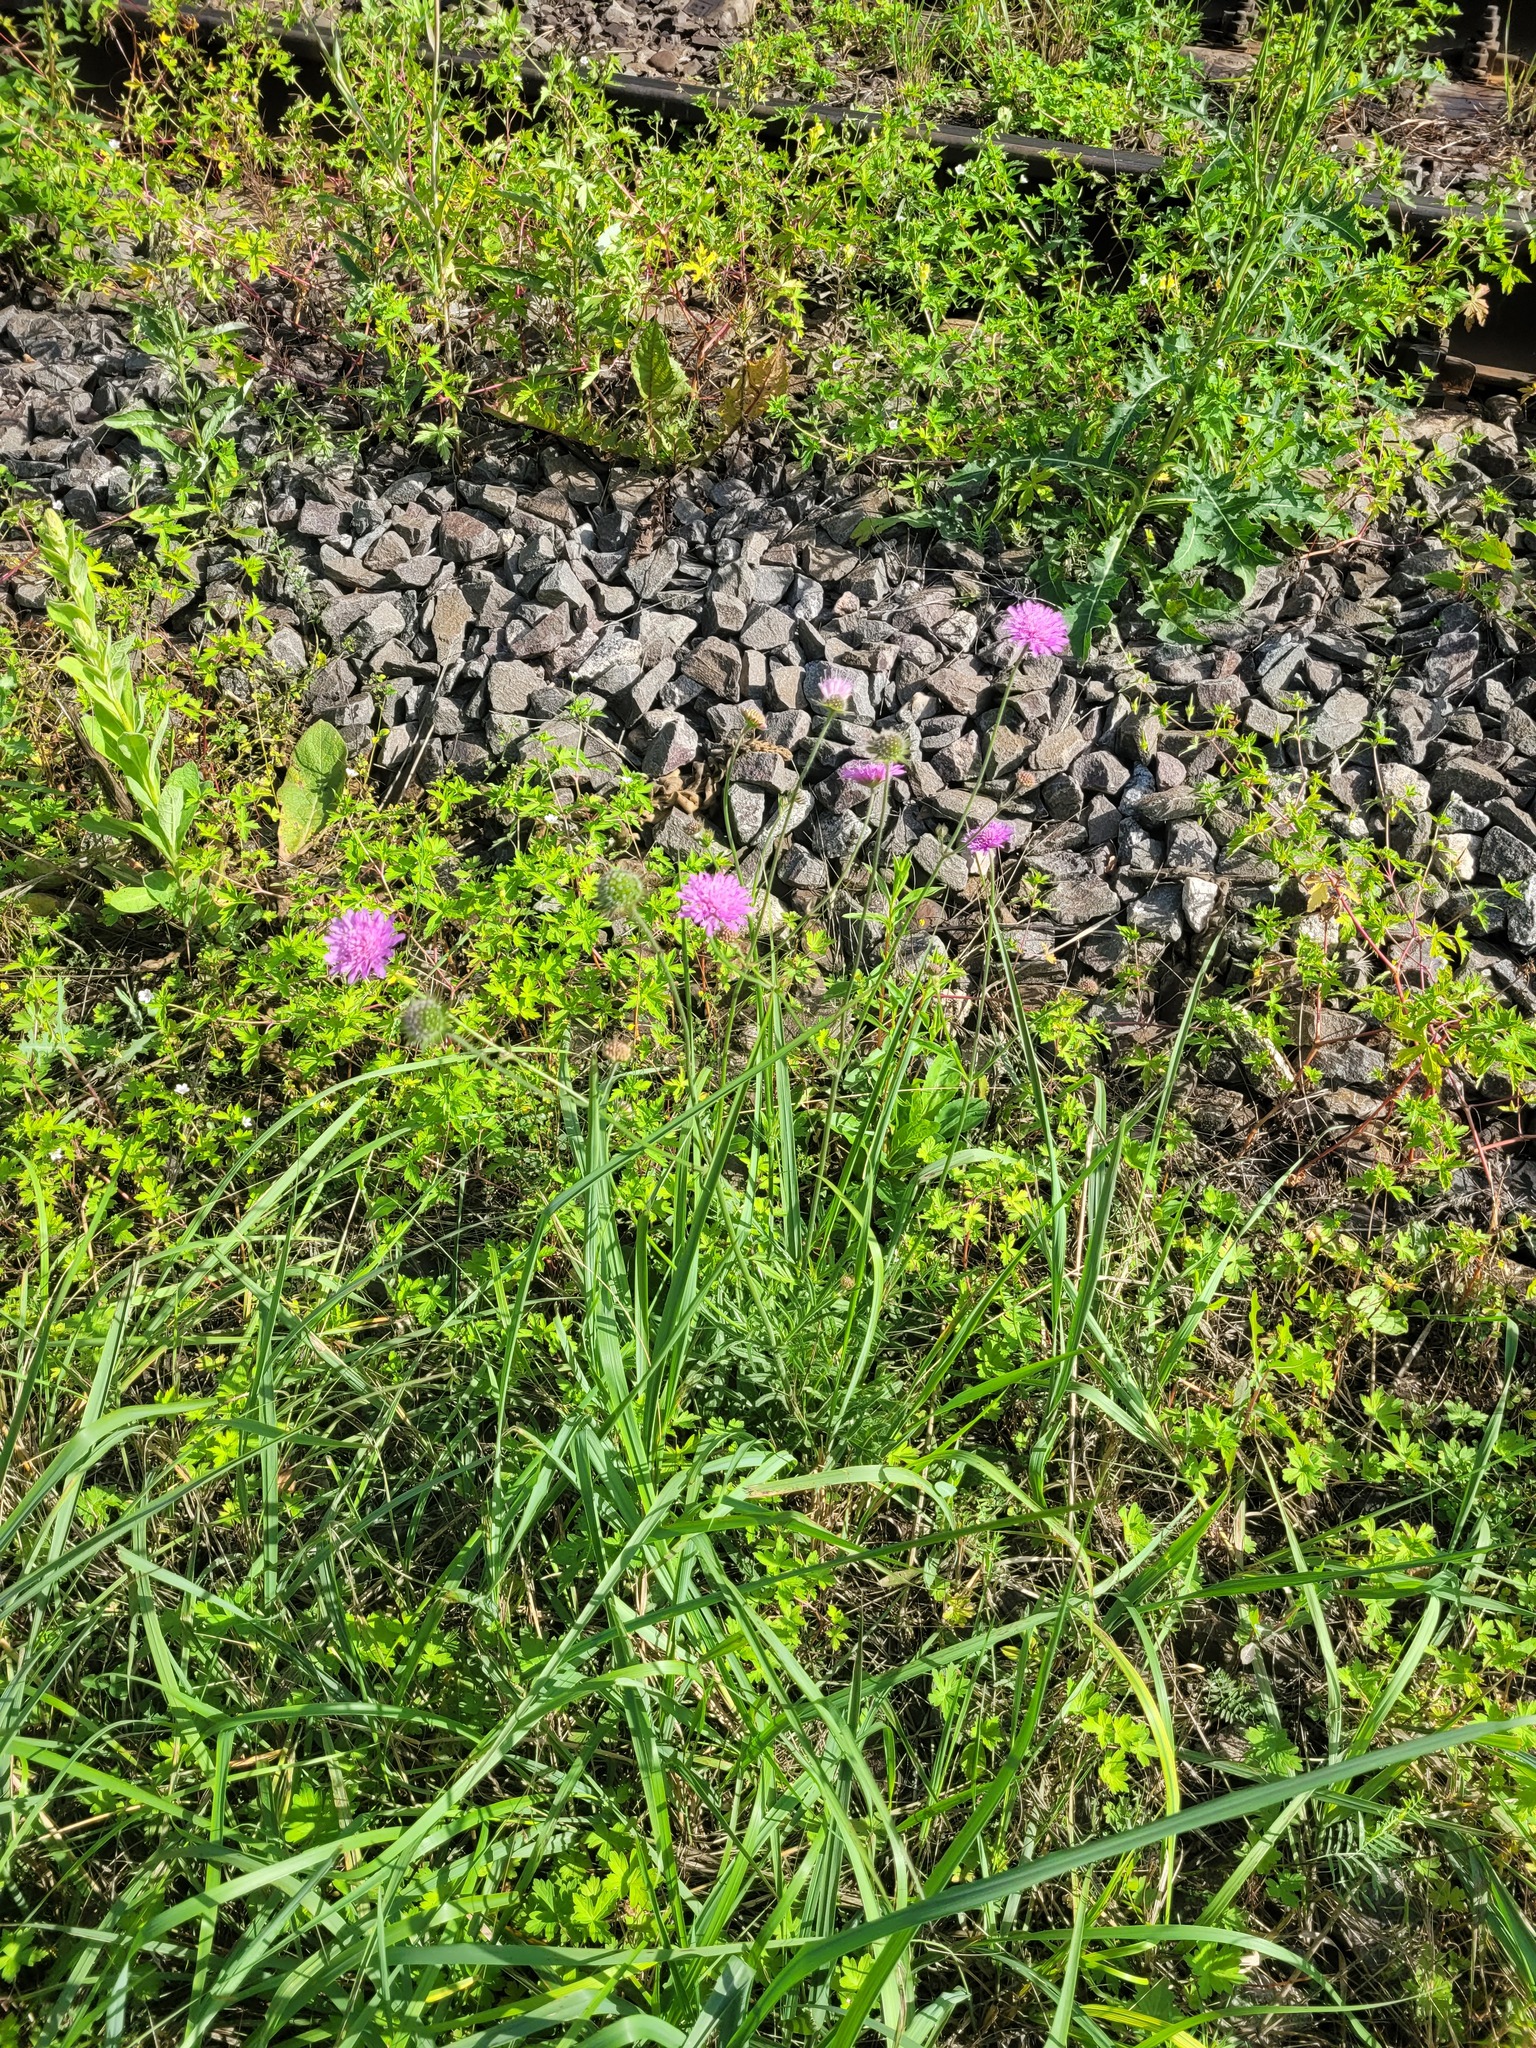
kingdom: Plantae
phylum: Tracheophyta
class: Magnoliopsida
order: Dipsacales
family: Caprifoliaceae
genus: Knautia
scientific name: Knautia arvensis
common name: Field scabiosa
